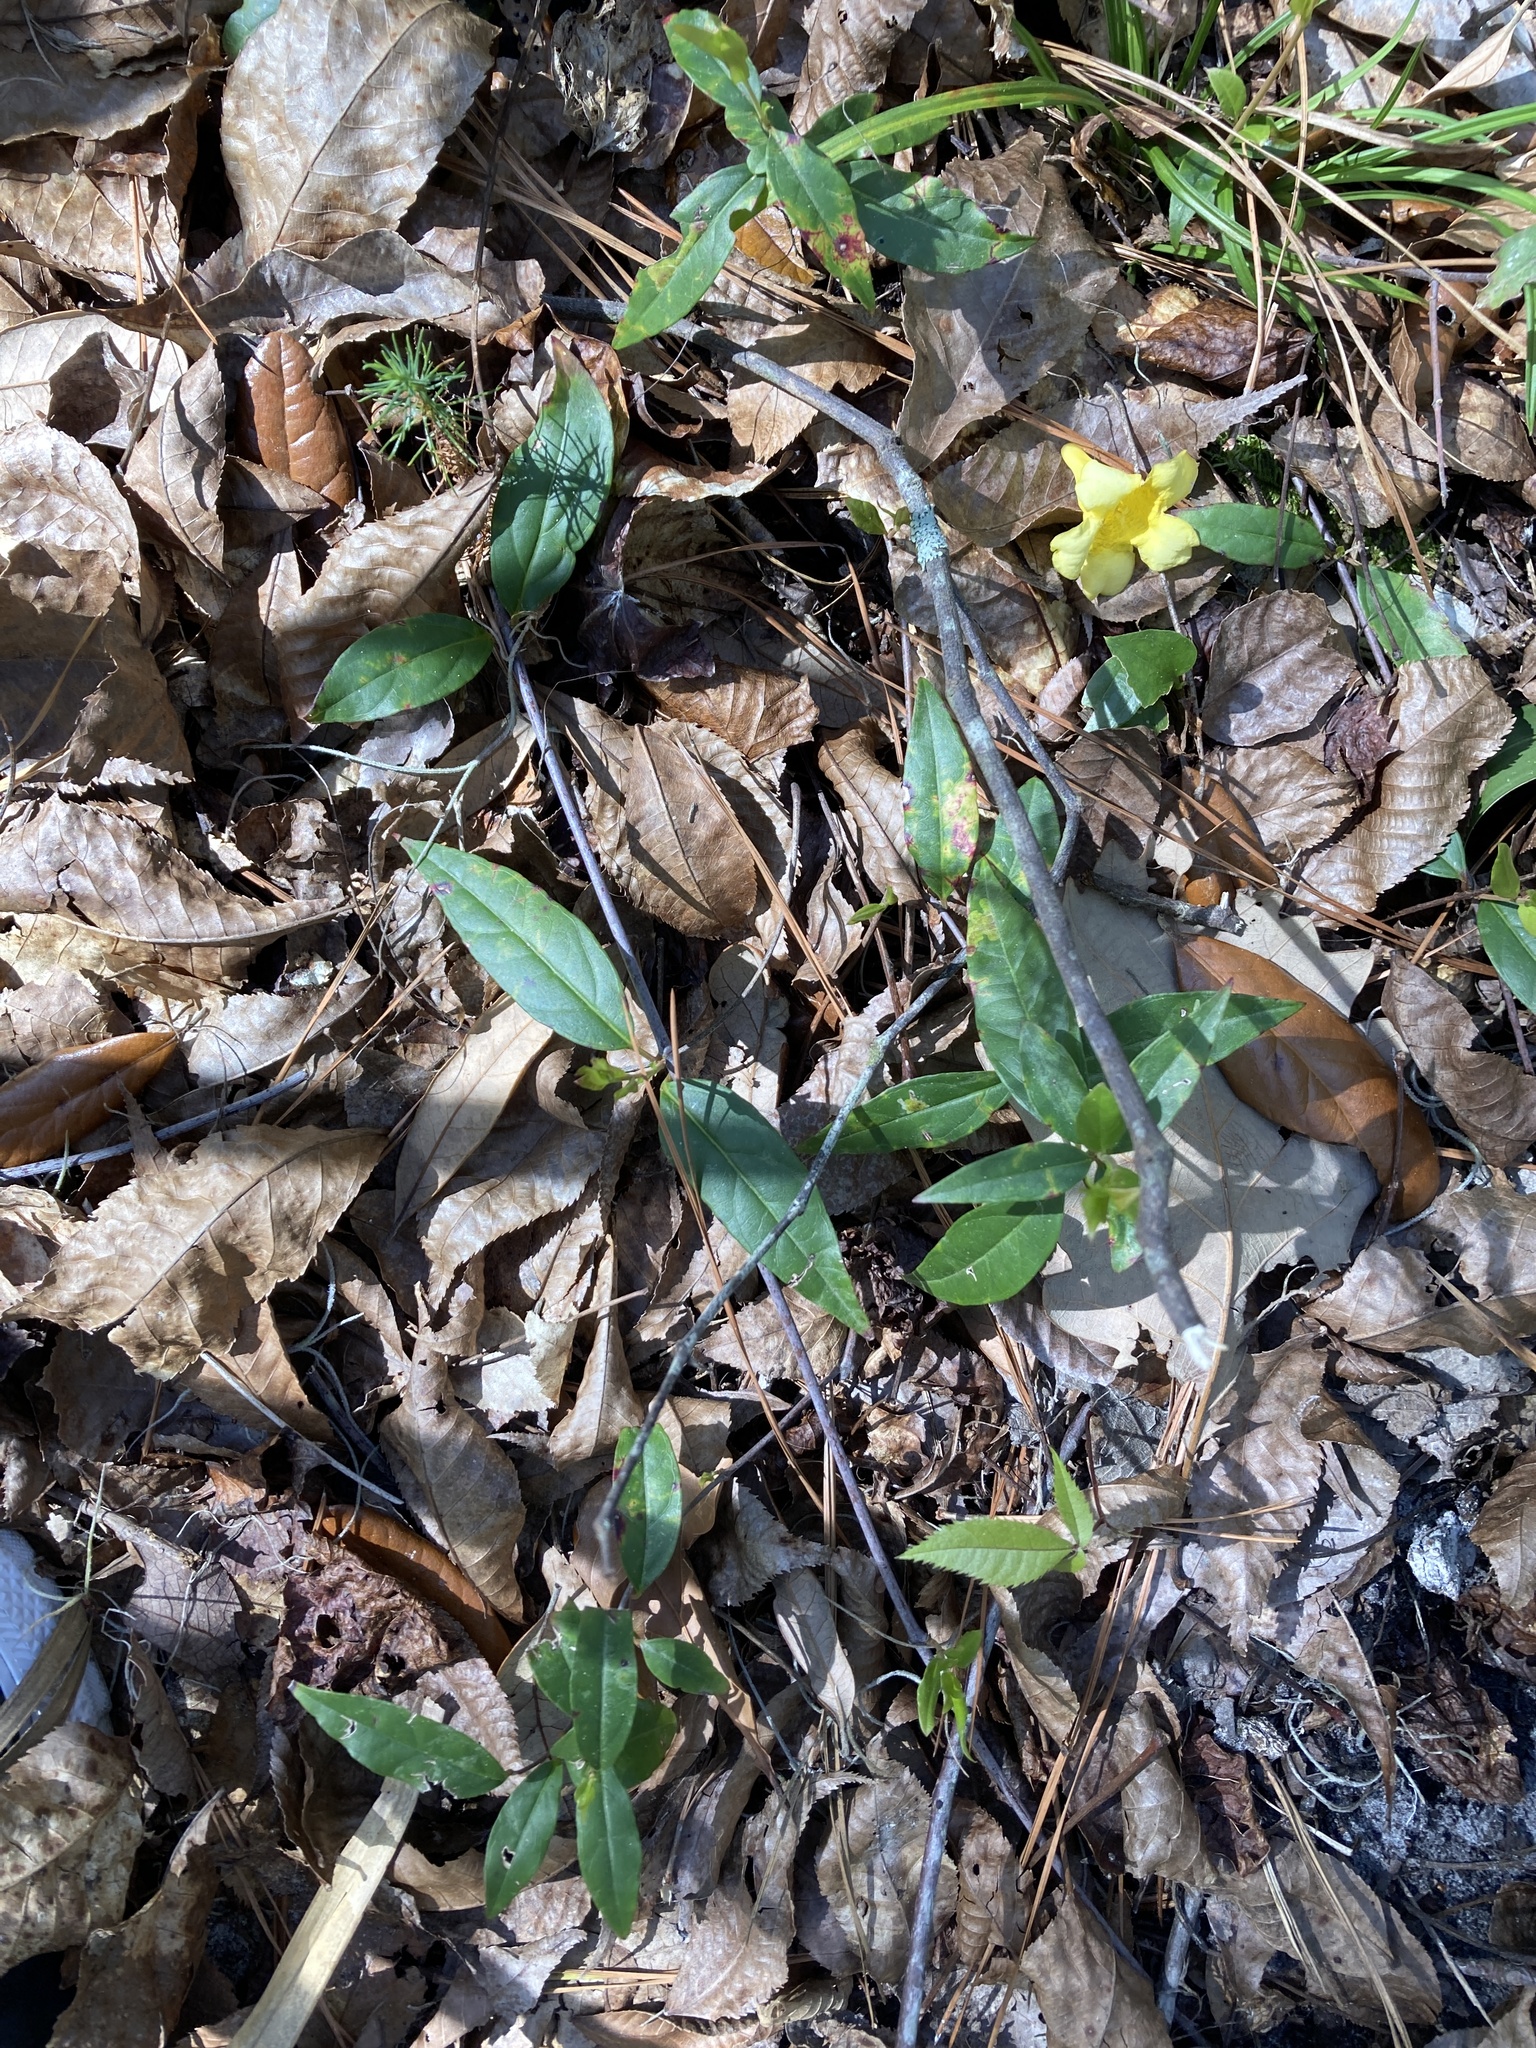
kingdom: Plantae
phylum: Tracheophyta
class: Magnoliopsida
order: Gentianales
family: Gelsemiaceae
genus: Gelsemium
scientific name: Gelsemium sempervirens
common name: Carolina-jasmine
